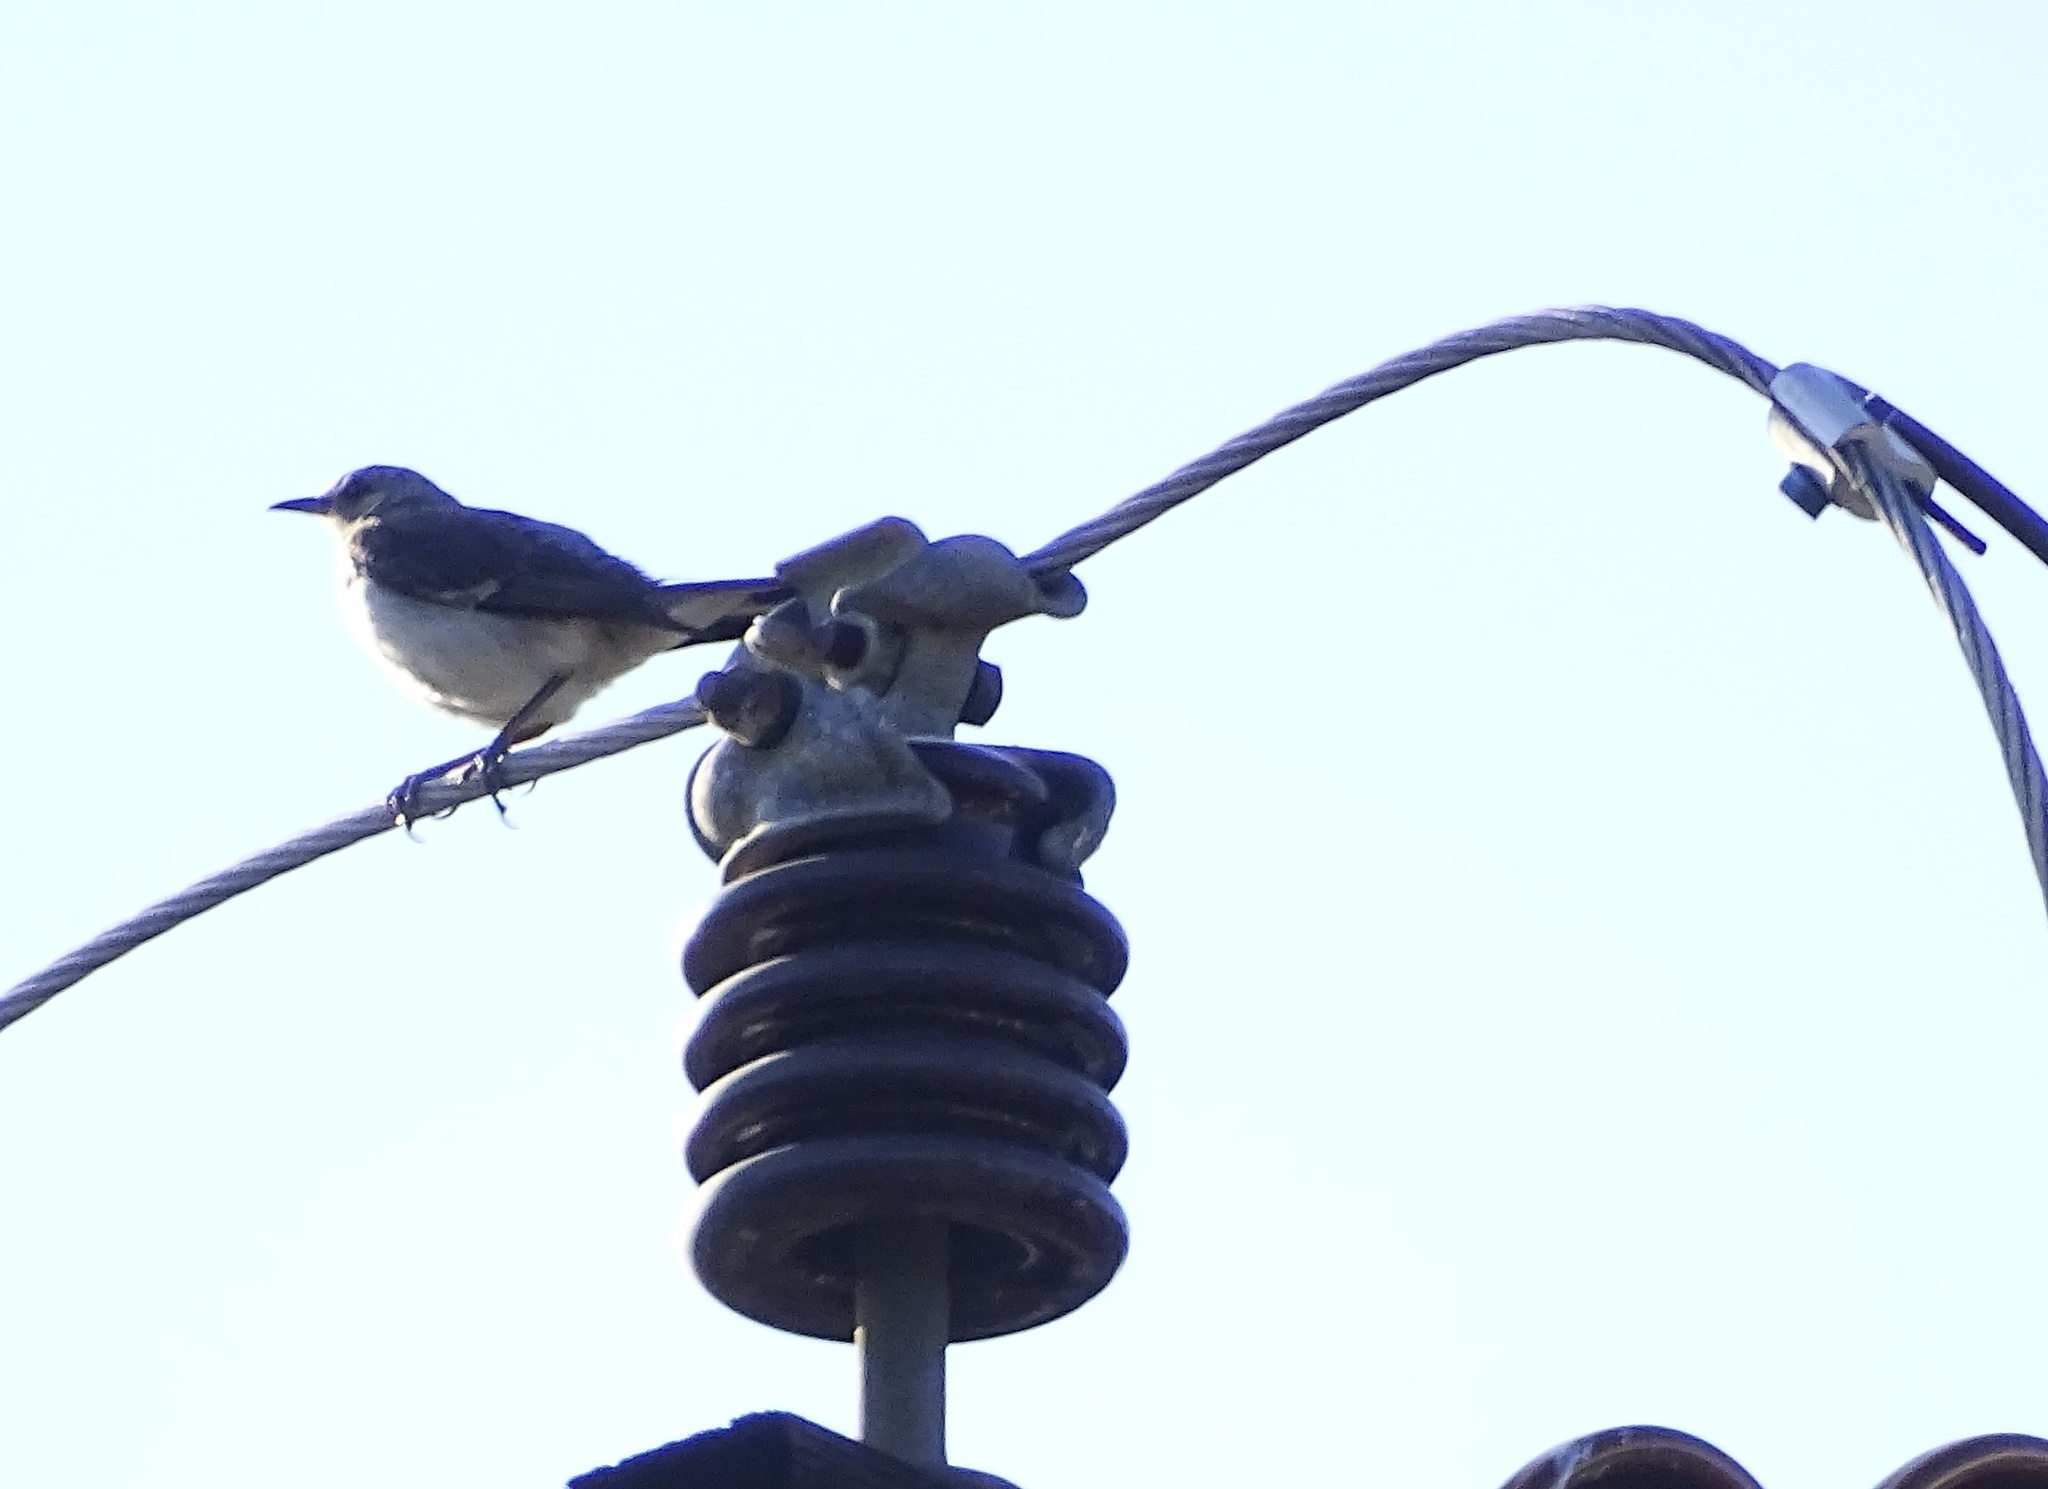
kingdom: Animalia
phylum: Chordata
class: Aves
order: Passeriformes
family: Mimidae
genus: Mimus
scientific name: Mimus polyglottos
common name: Northern mockingbird
